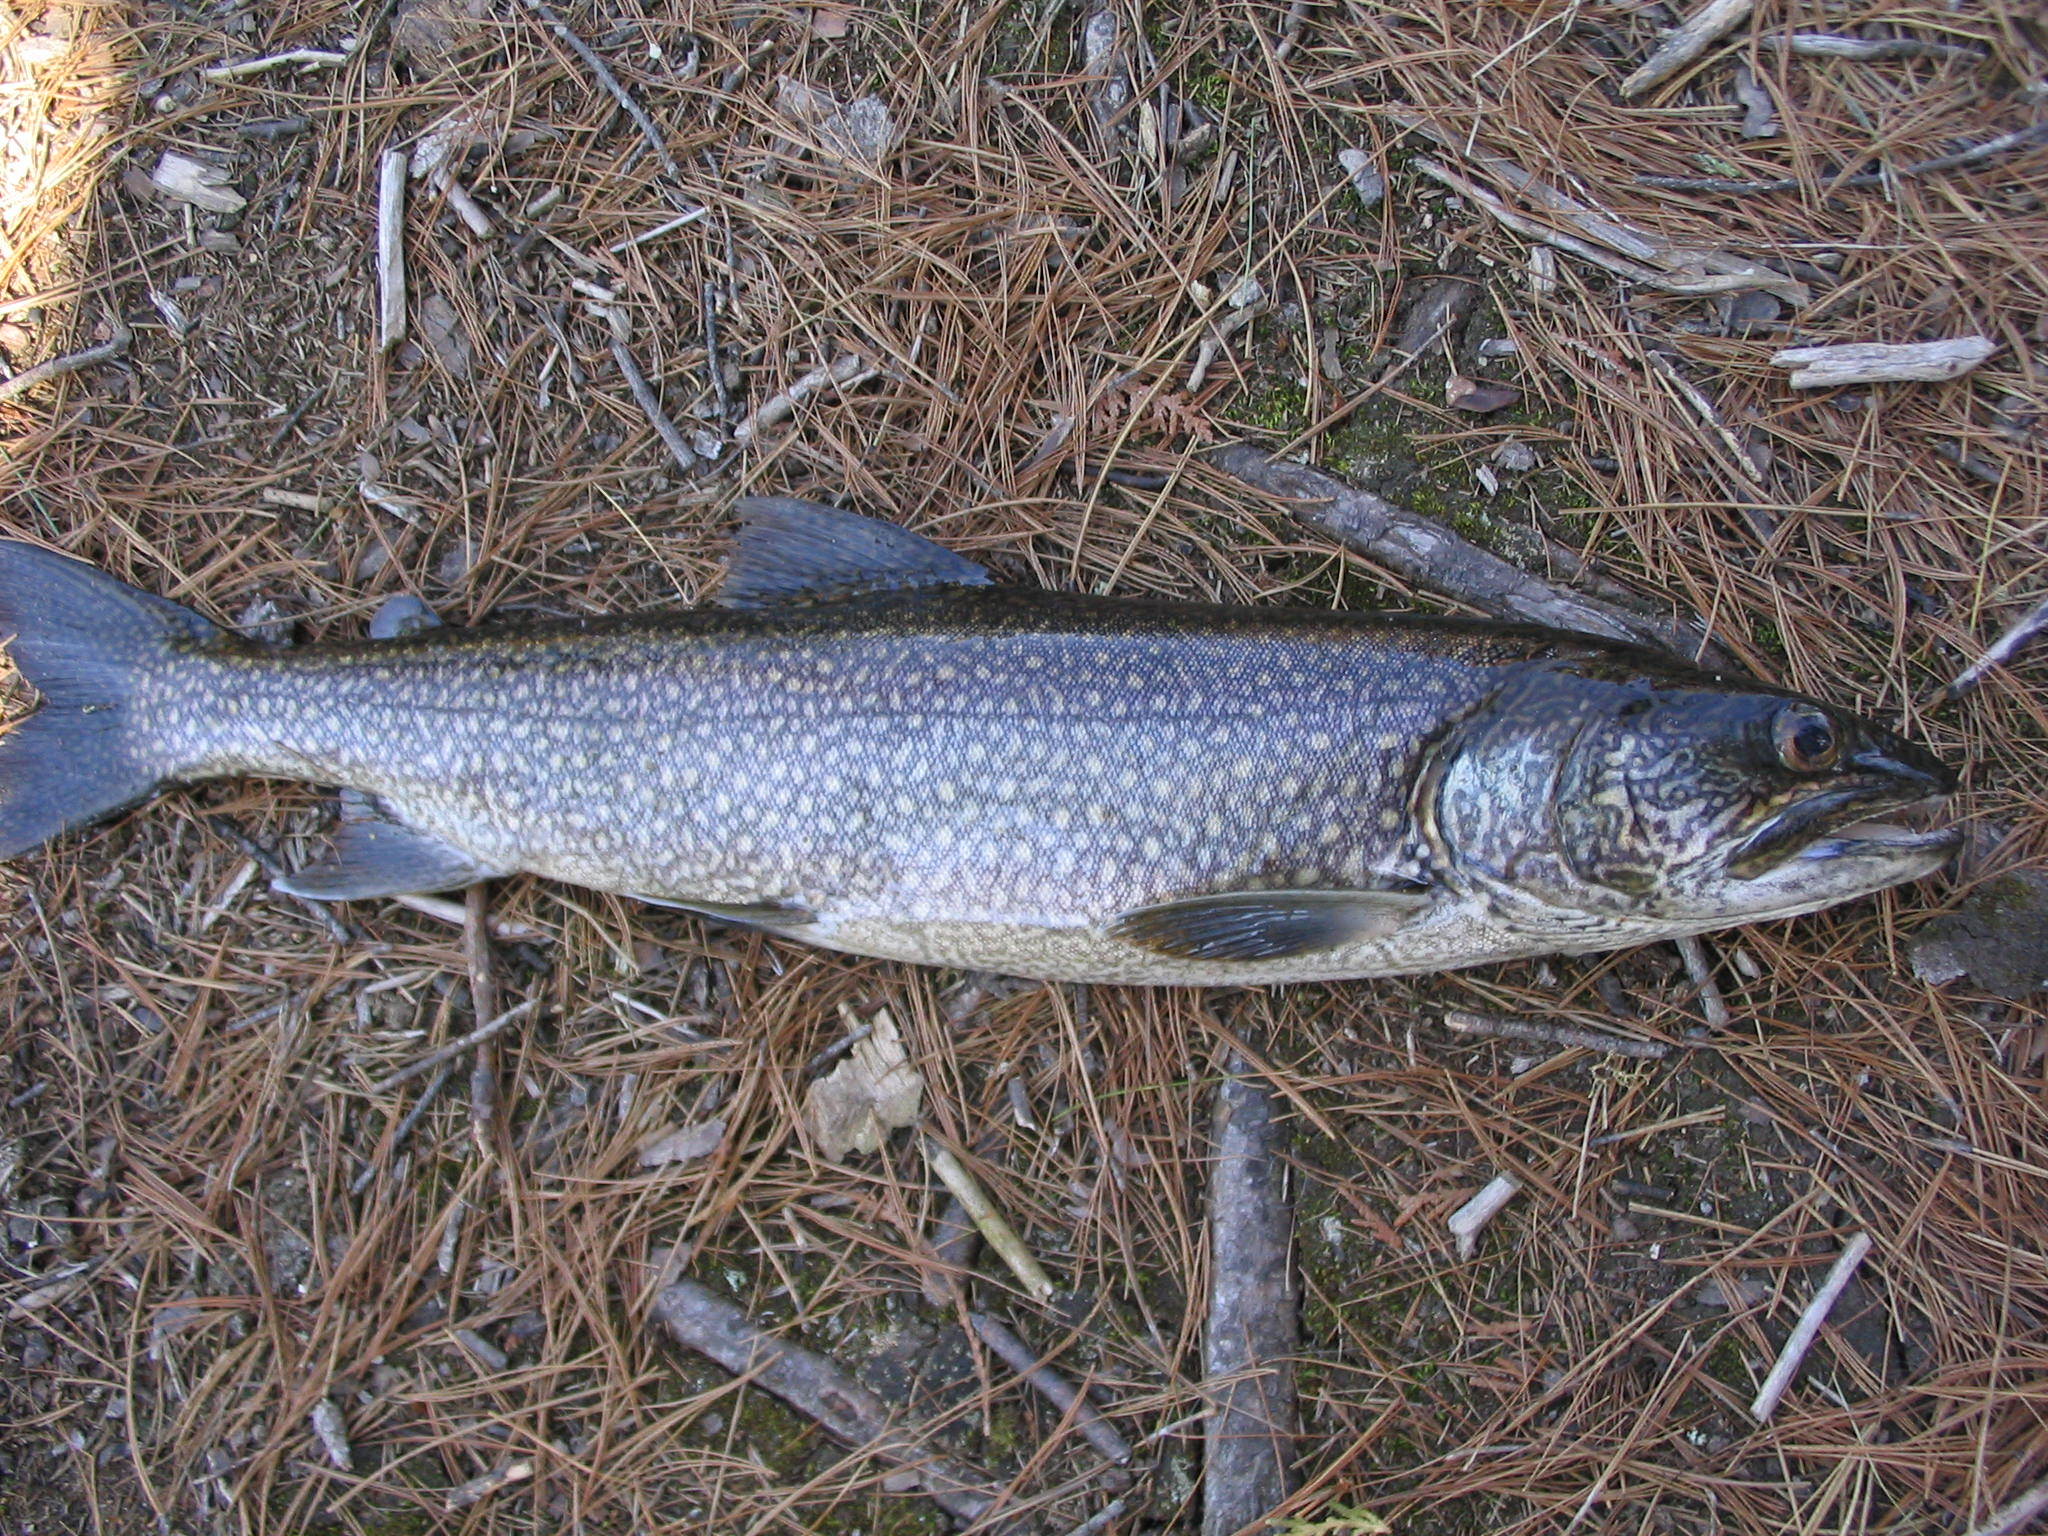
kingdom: Animalia
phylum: Chordata
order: Salmoniformes
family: Salmonidae
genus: Salvelinus
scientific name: Salvelinus namaycush
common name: American lake charr
